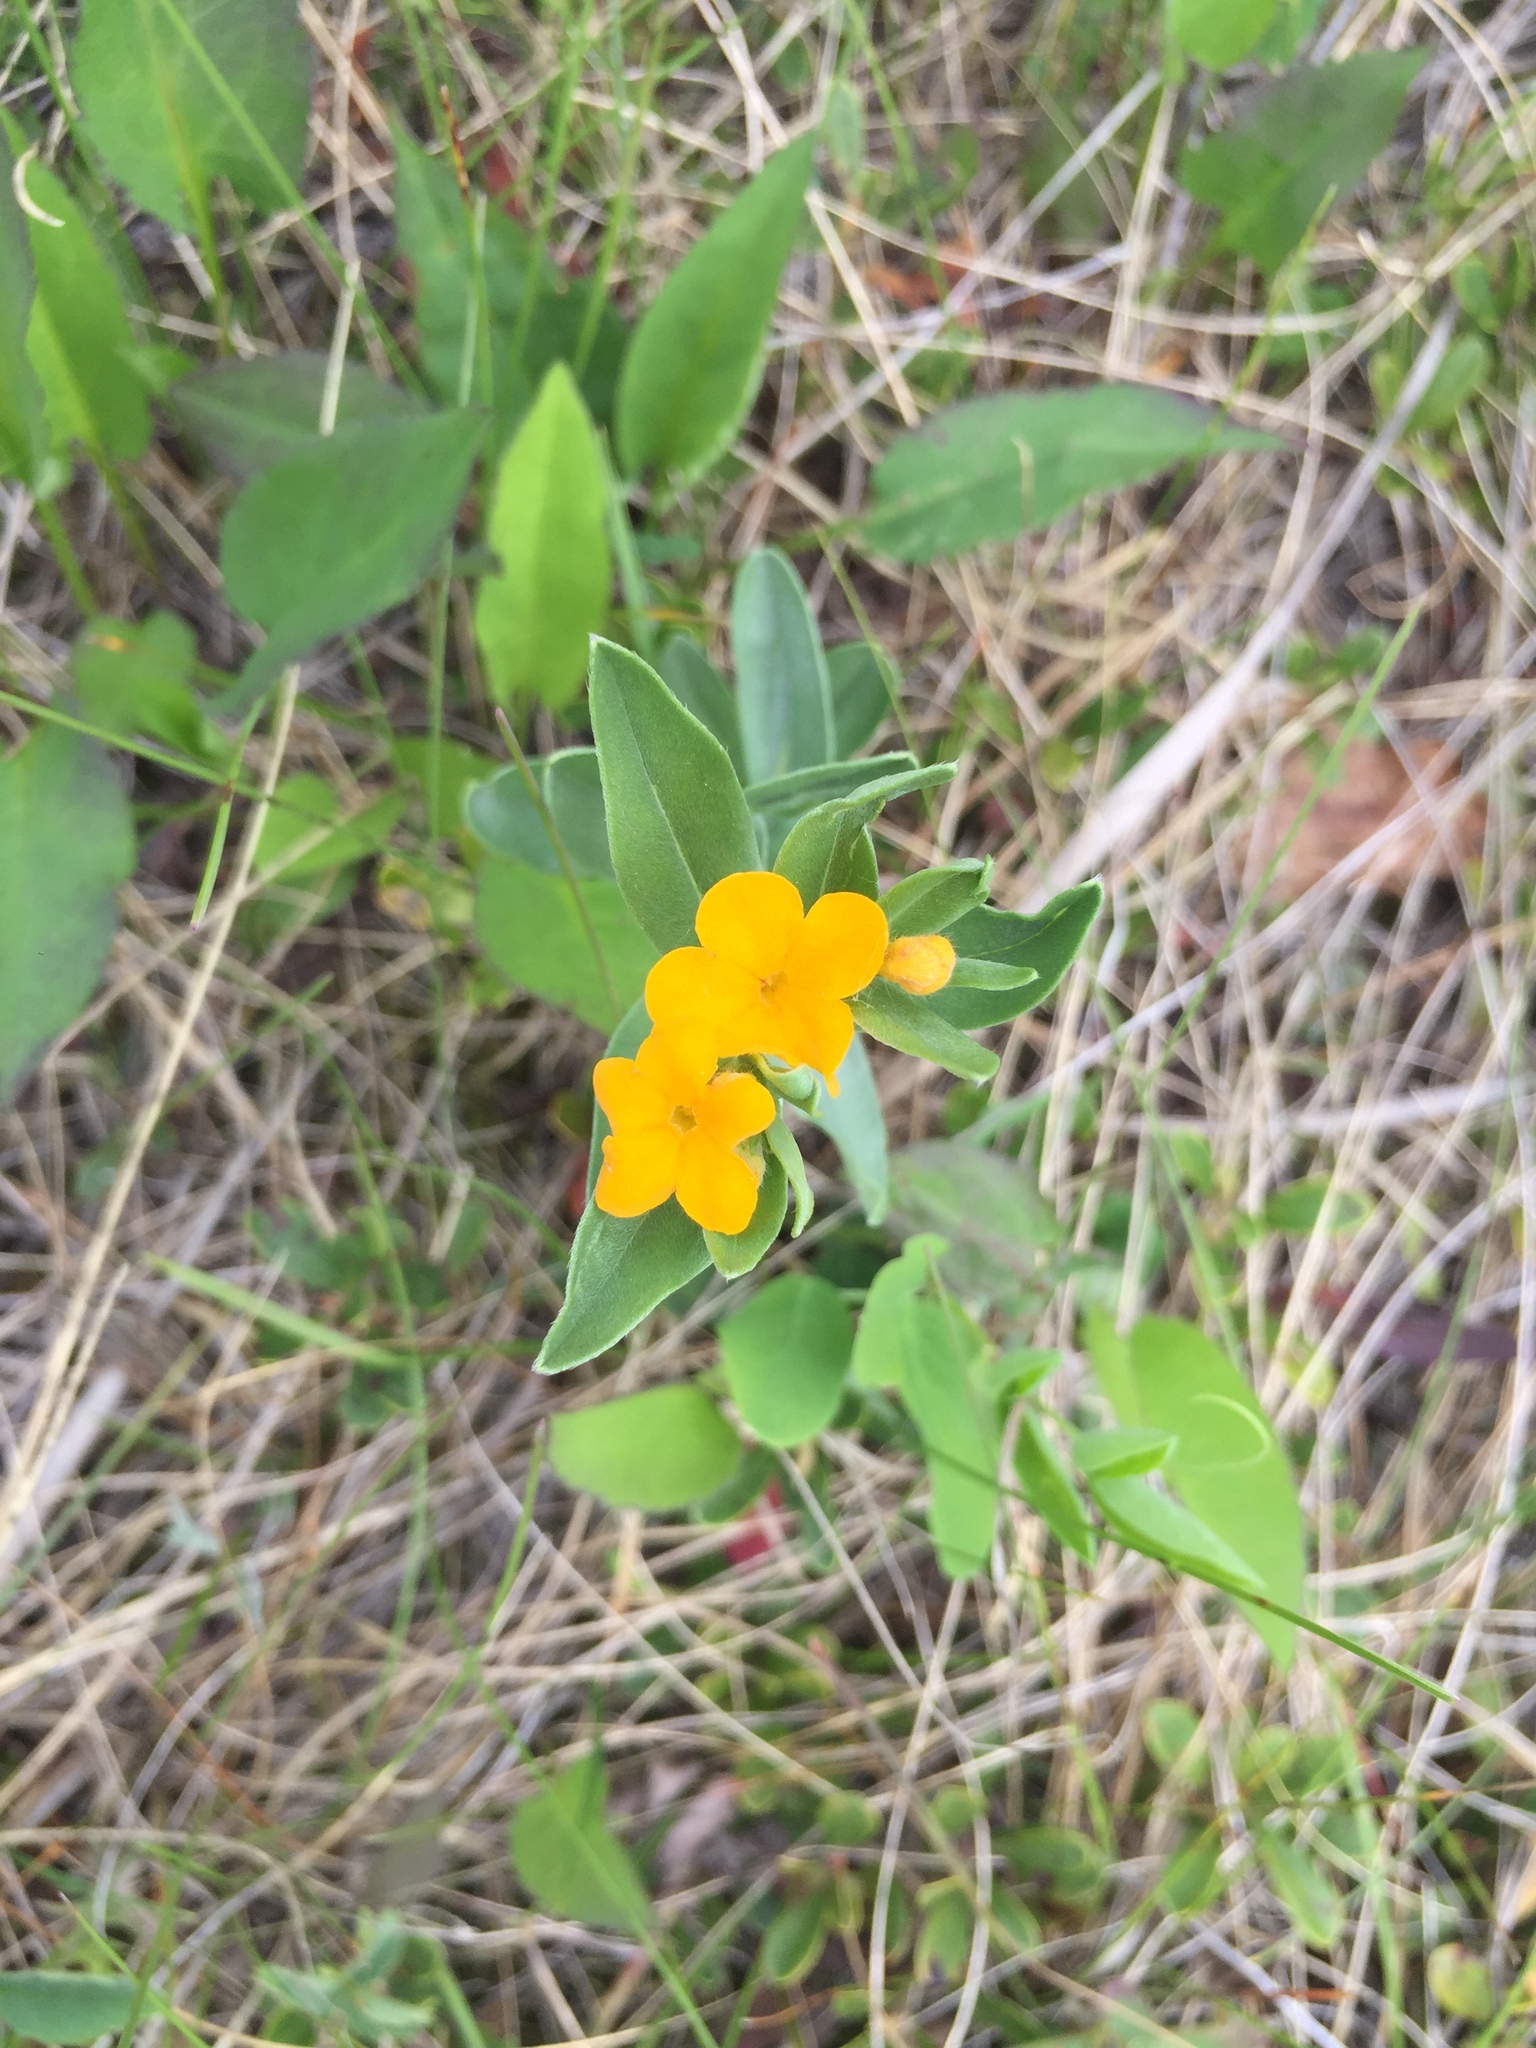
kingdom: Plantae
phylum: Tracheophyta
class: Magnoliopsida
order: Boraginales
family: Boraginaceae
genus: Lithospermum
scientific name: Lithospermum canescens
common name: Hoary puccoon
